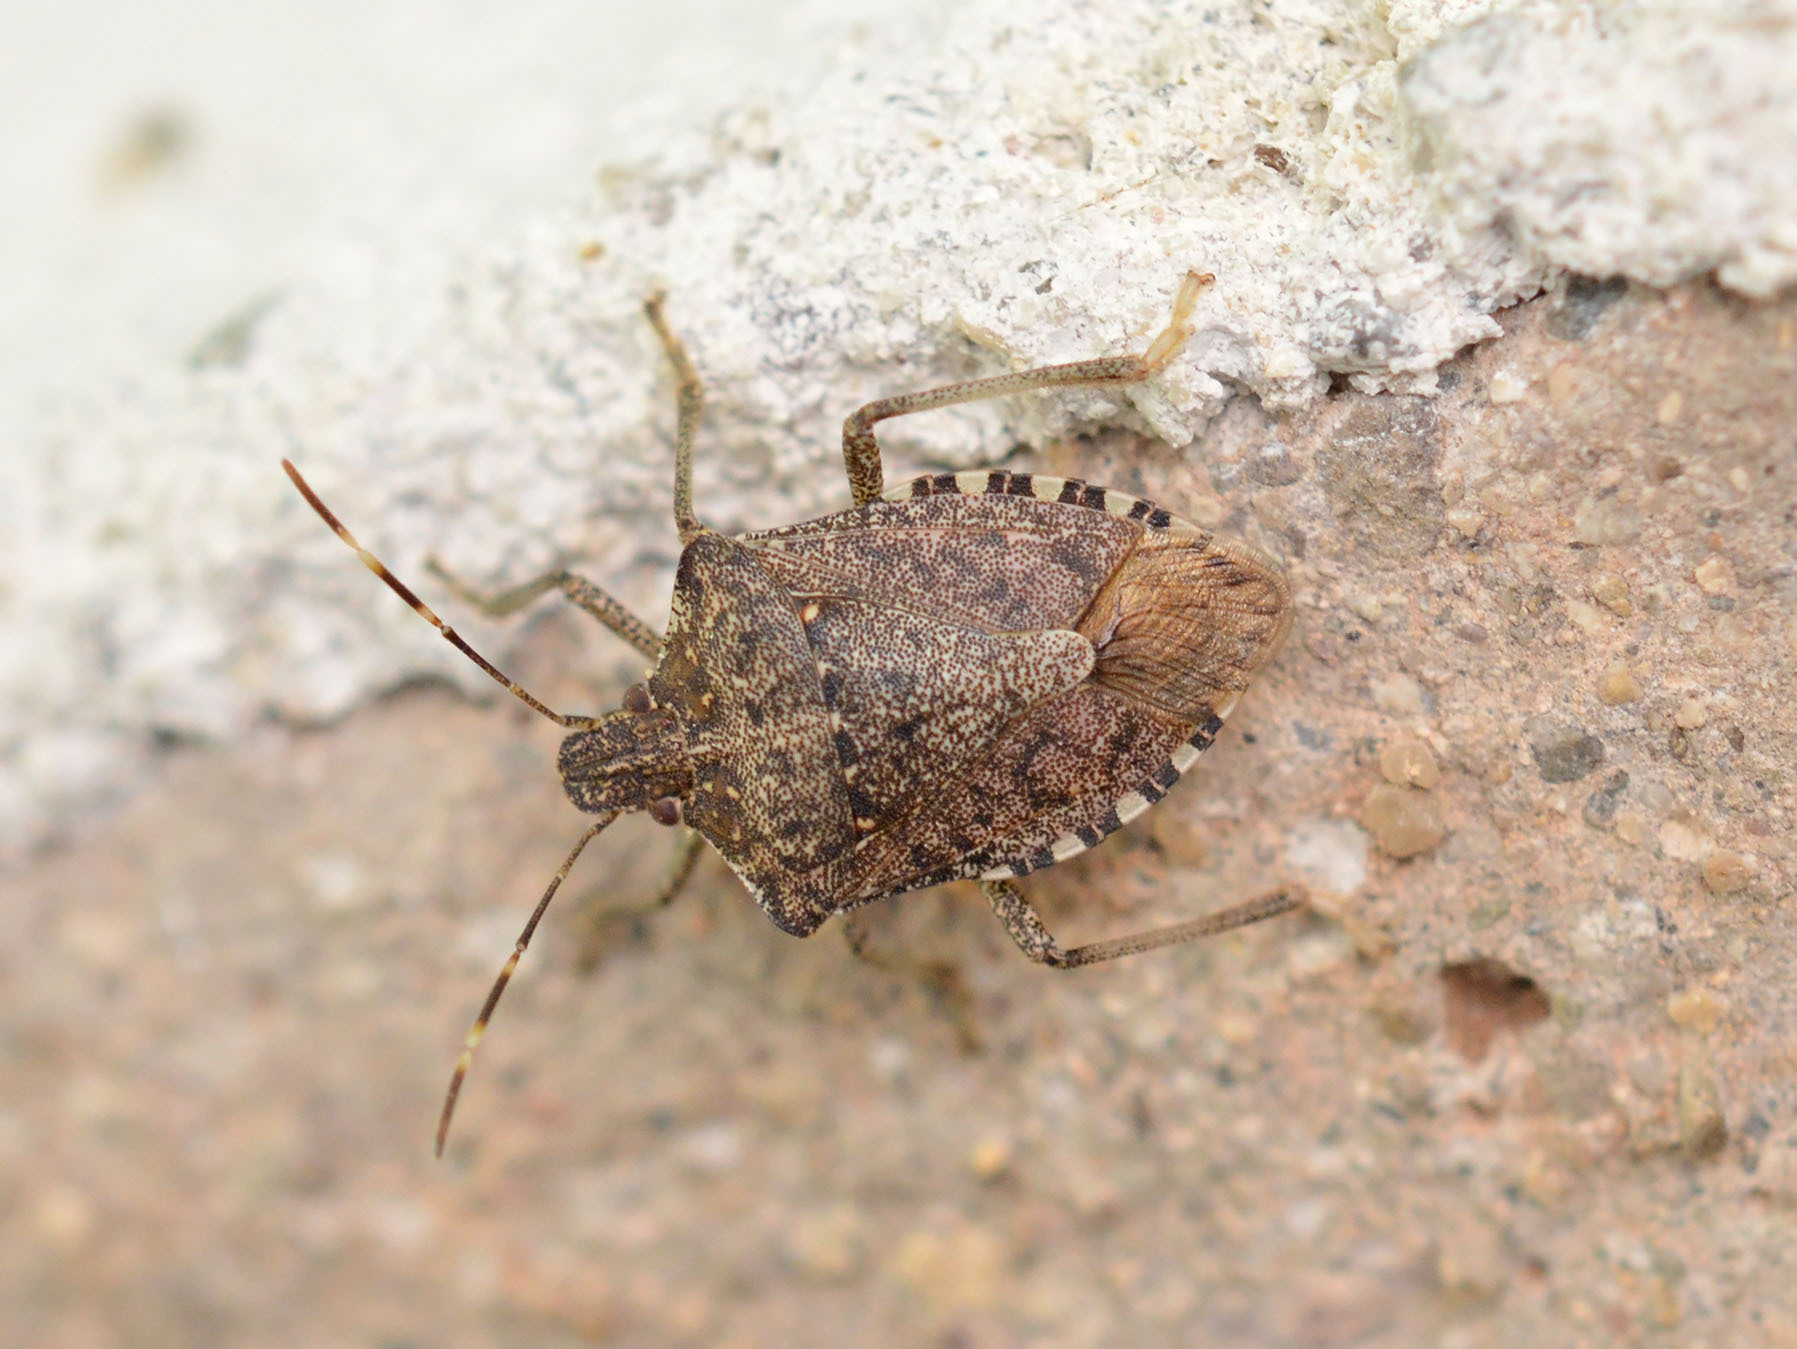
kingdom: Animalia
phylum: Arthropoda
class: Insecta
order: Hemiptera
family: Pentatomidae
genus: Halyomorpha
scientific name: Halyomorpha halys
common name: Brown marmorated stink bug
